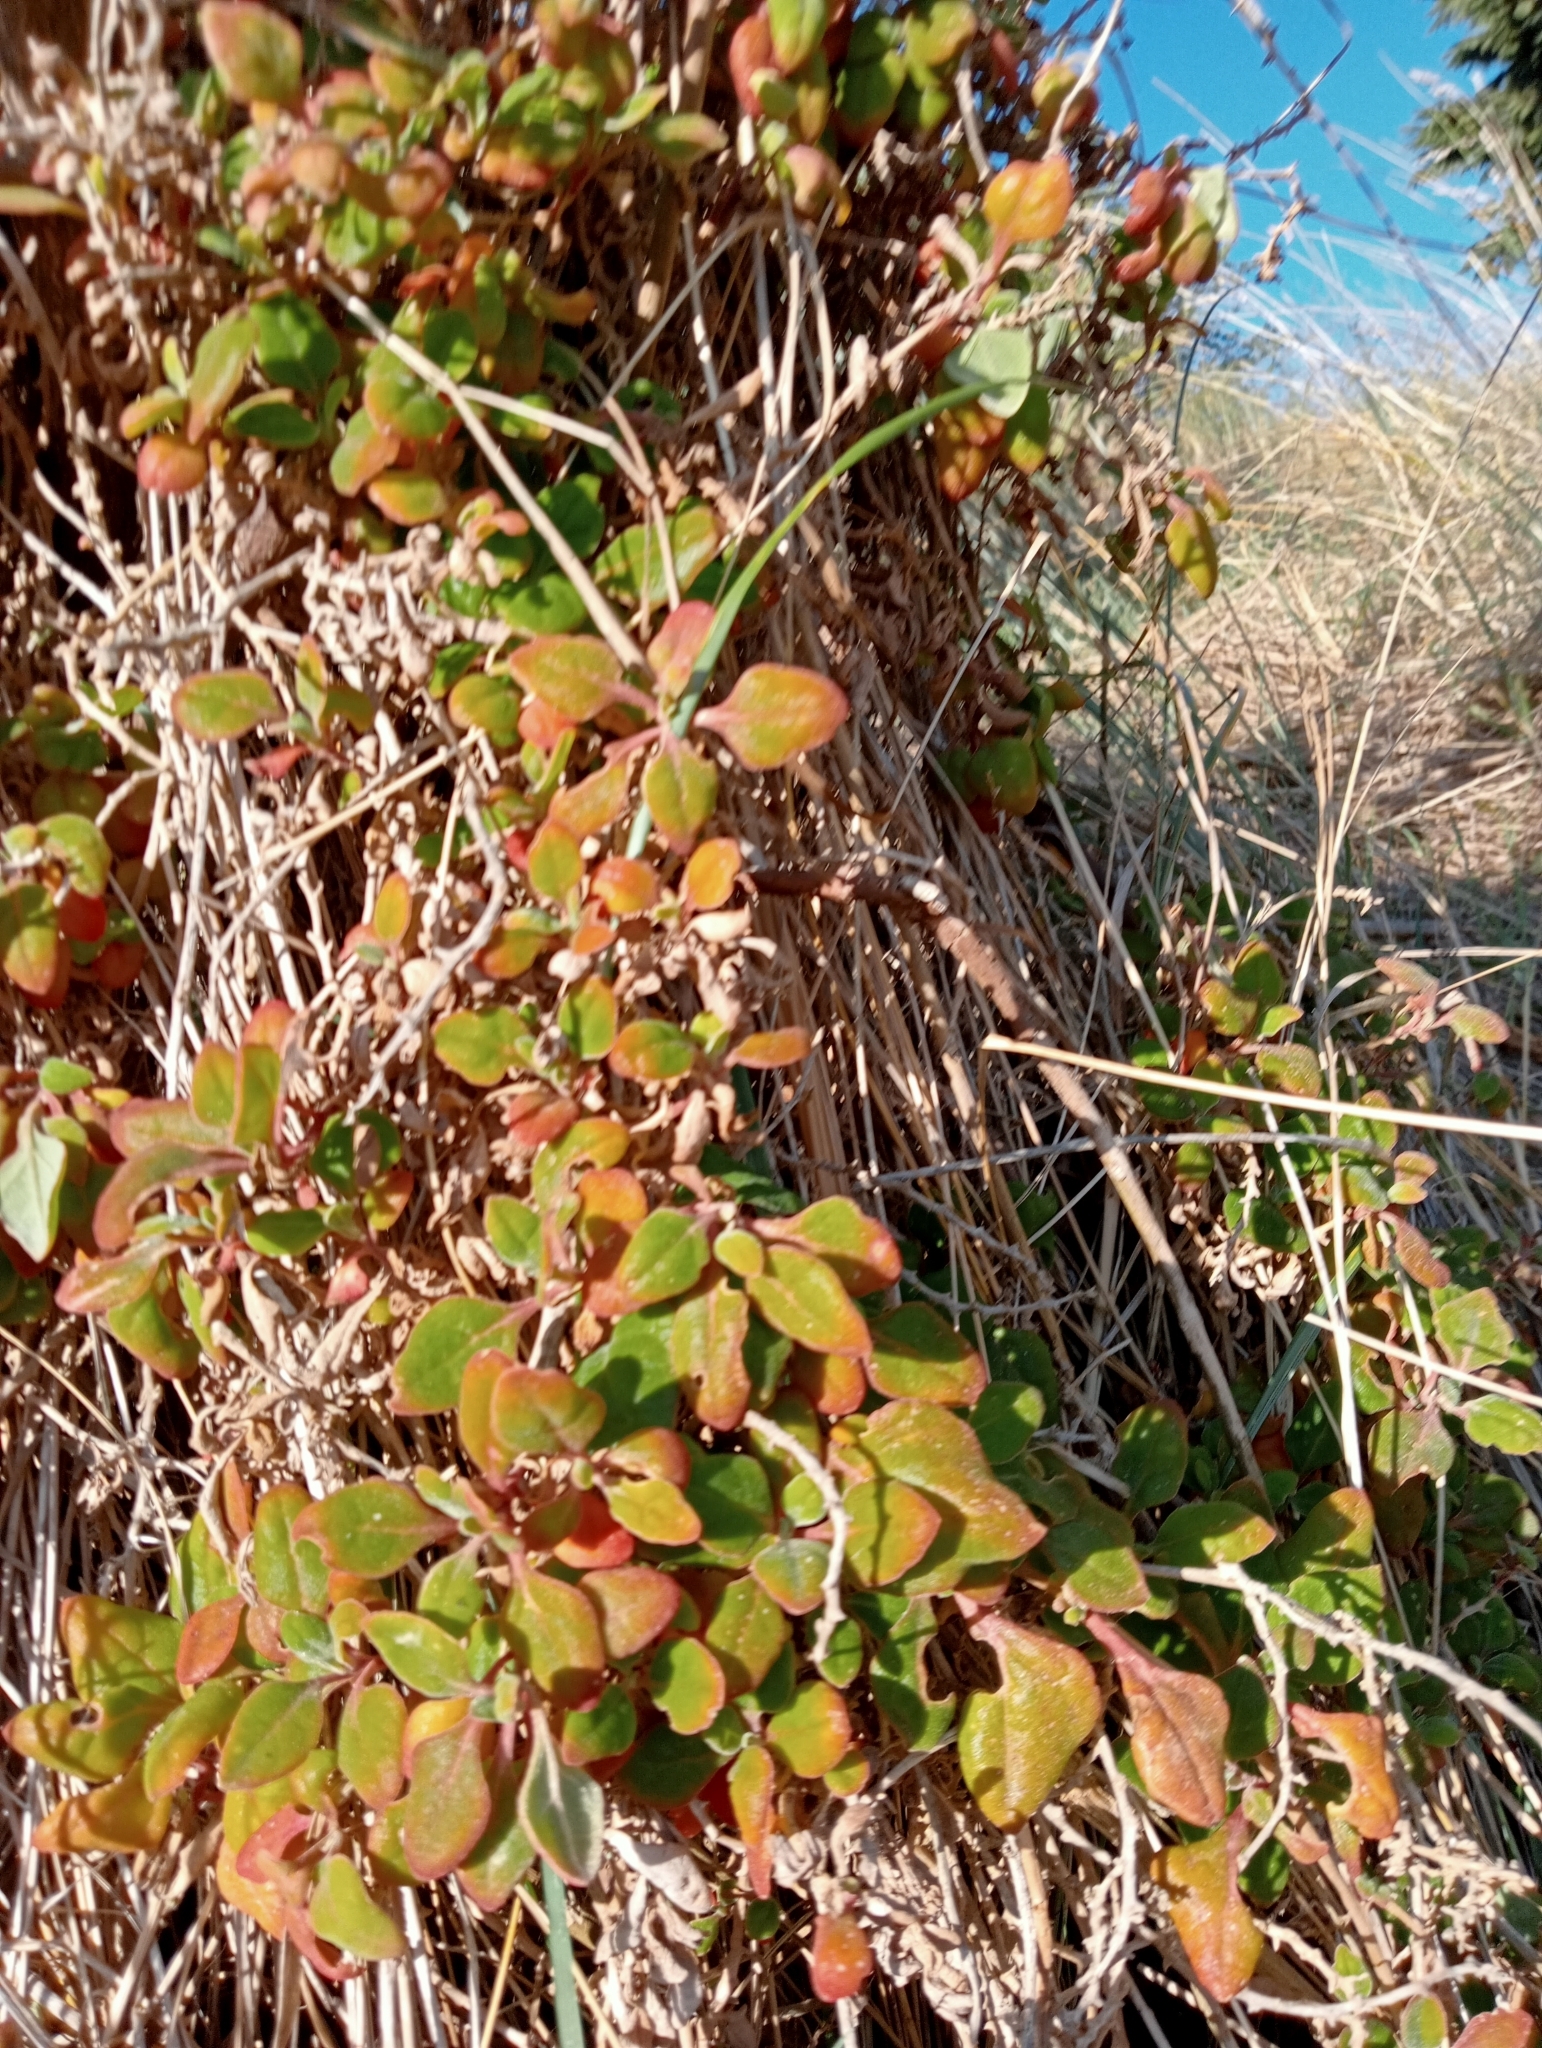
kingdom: Plantae
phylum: Tracheophyta
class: Magnoliopsida
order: Caryophyllales
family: Aizoaceae
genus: Tetragonia
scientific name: Tetragonia implexicoma
